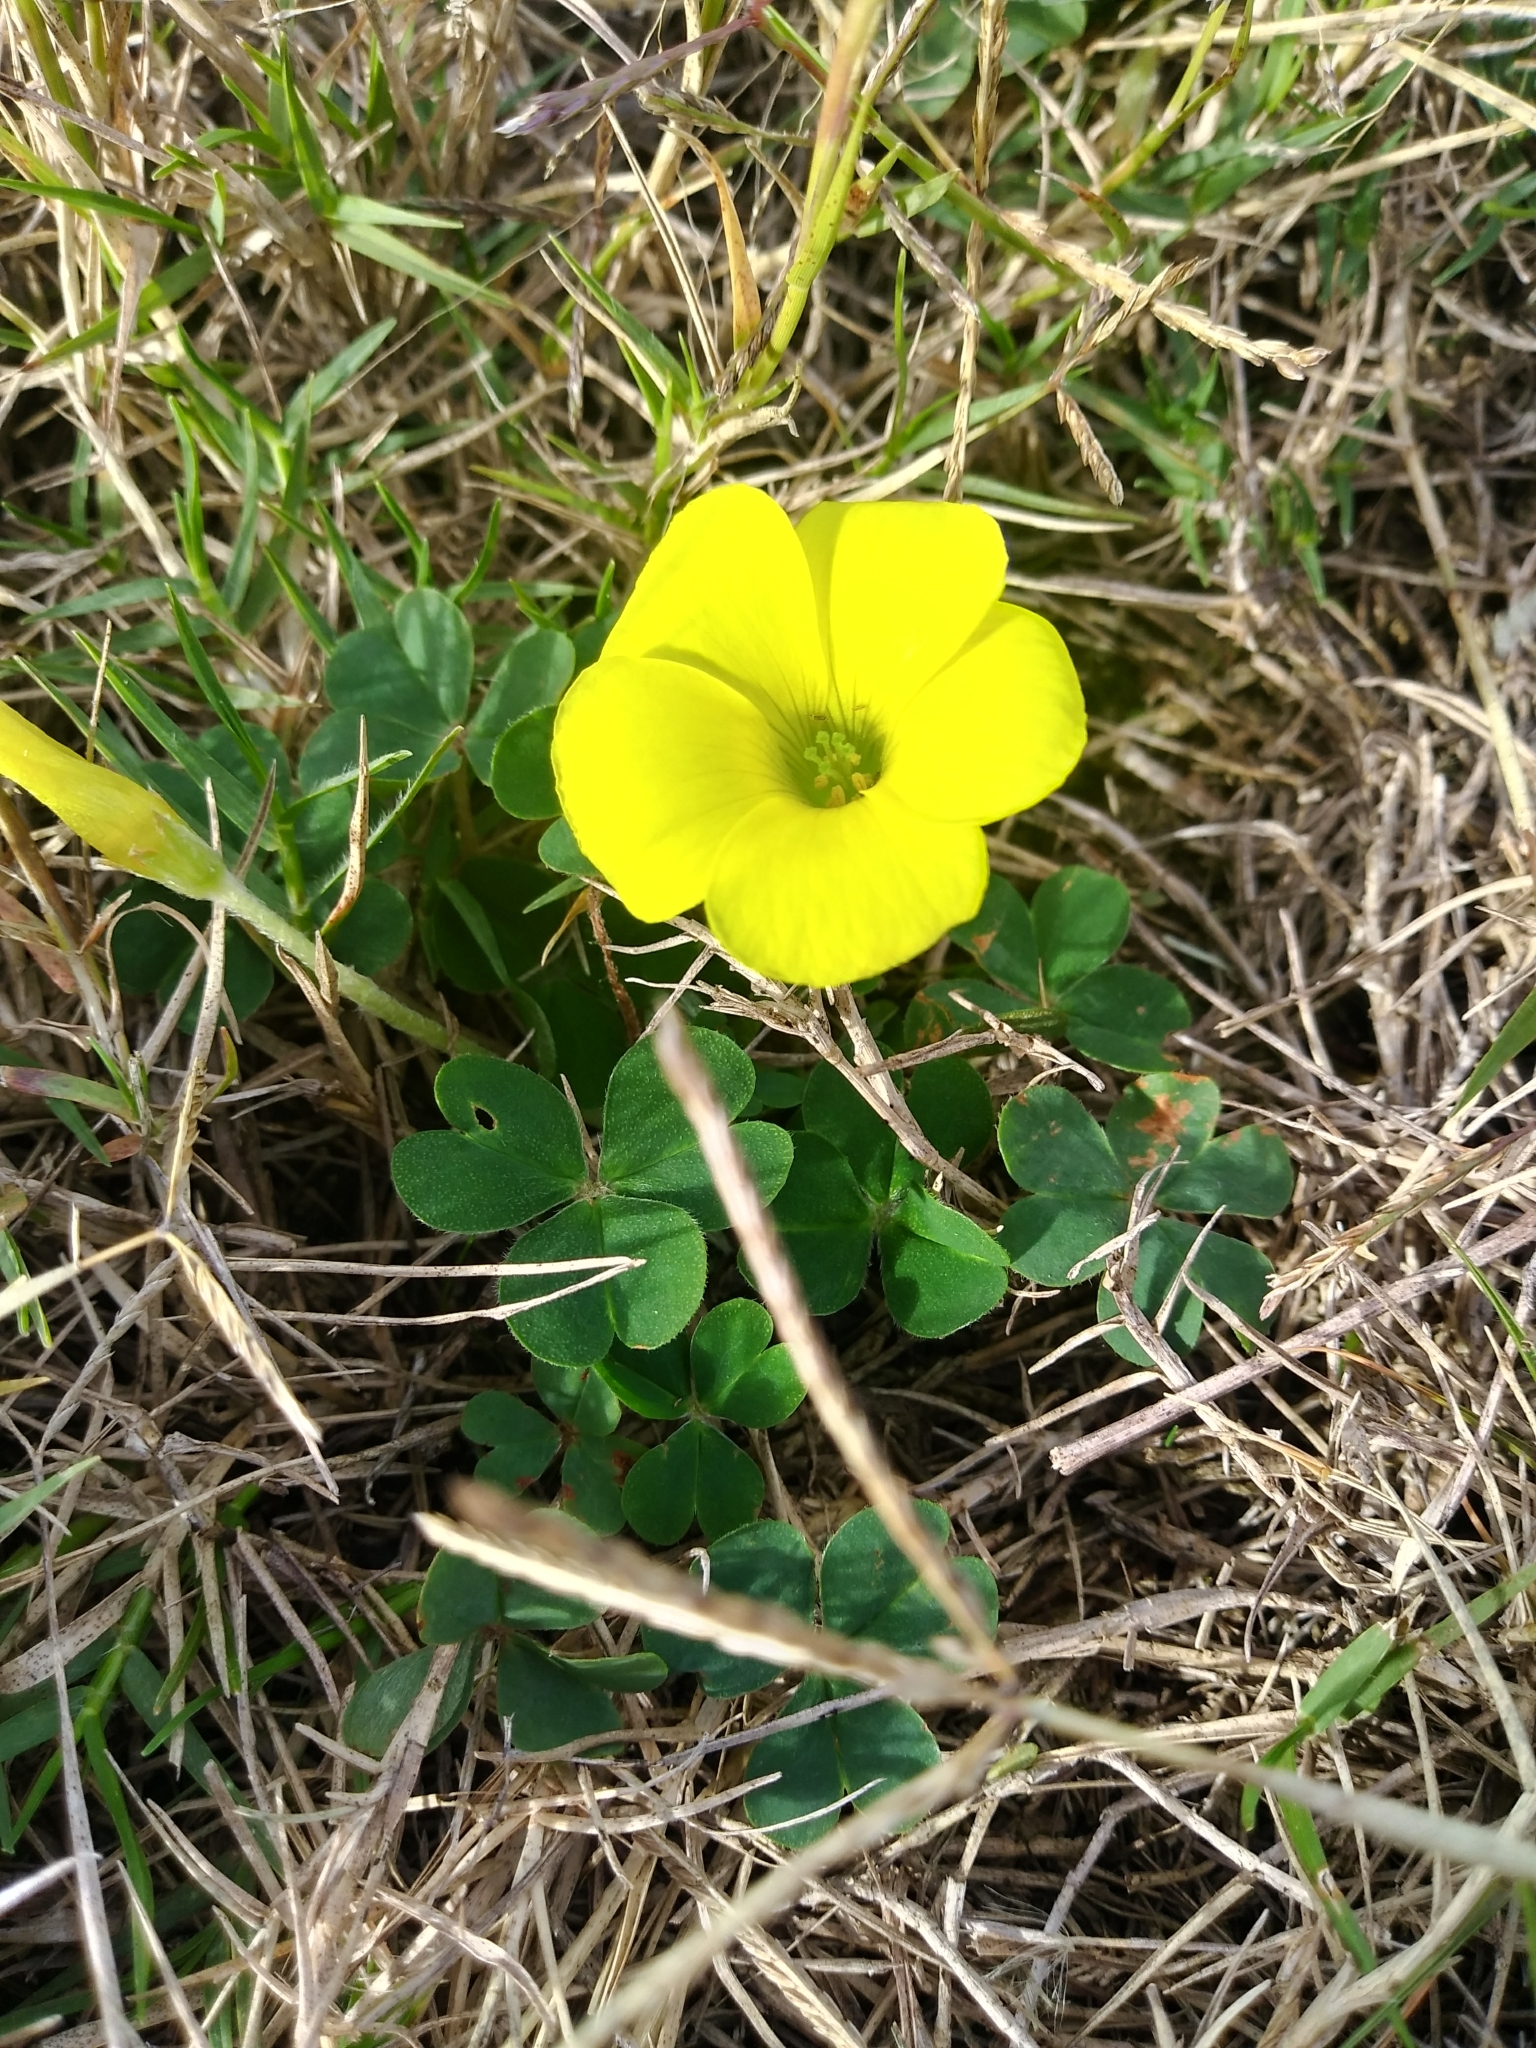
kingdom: Plantae
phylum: Tracheophyta
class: Magnoliopsida
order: Oxalidales
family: Oxalidaceae
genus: Oxalis
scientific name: Oxalis sellowiana
